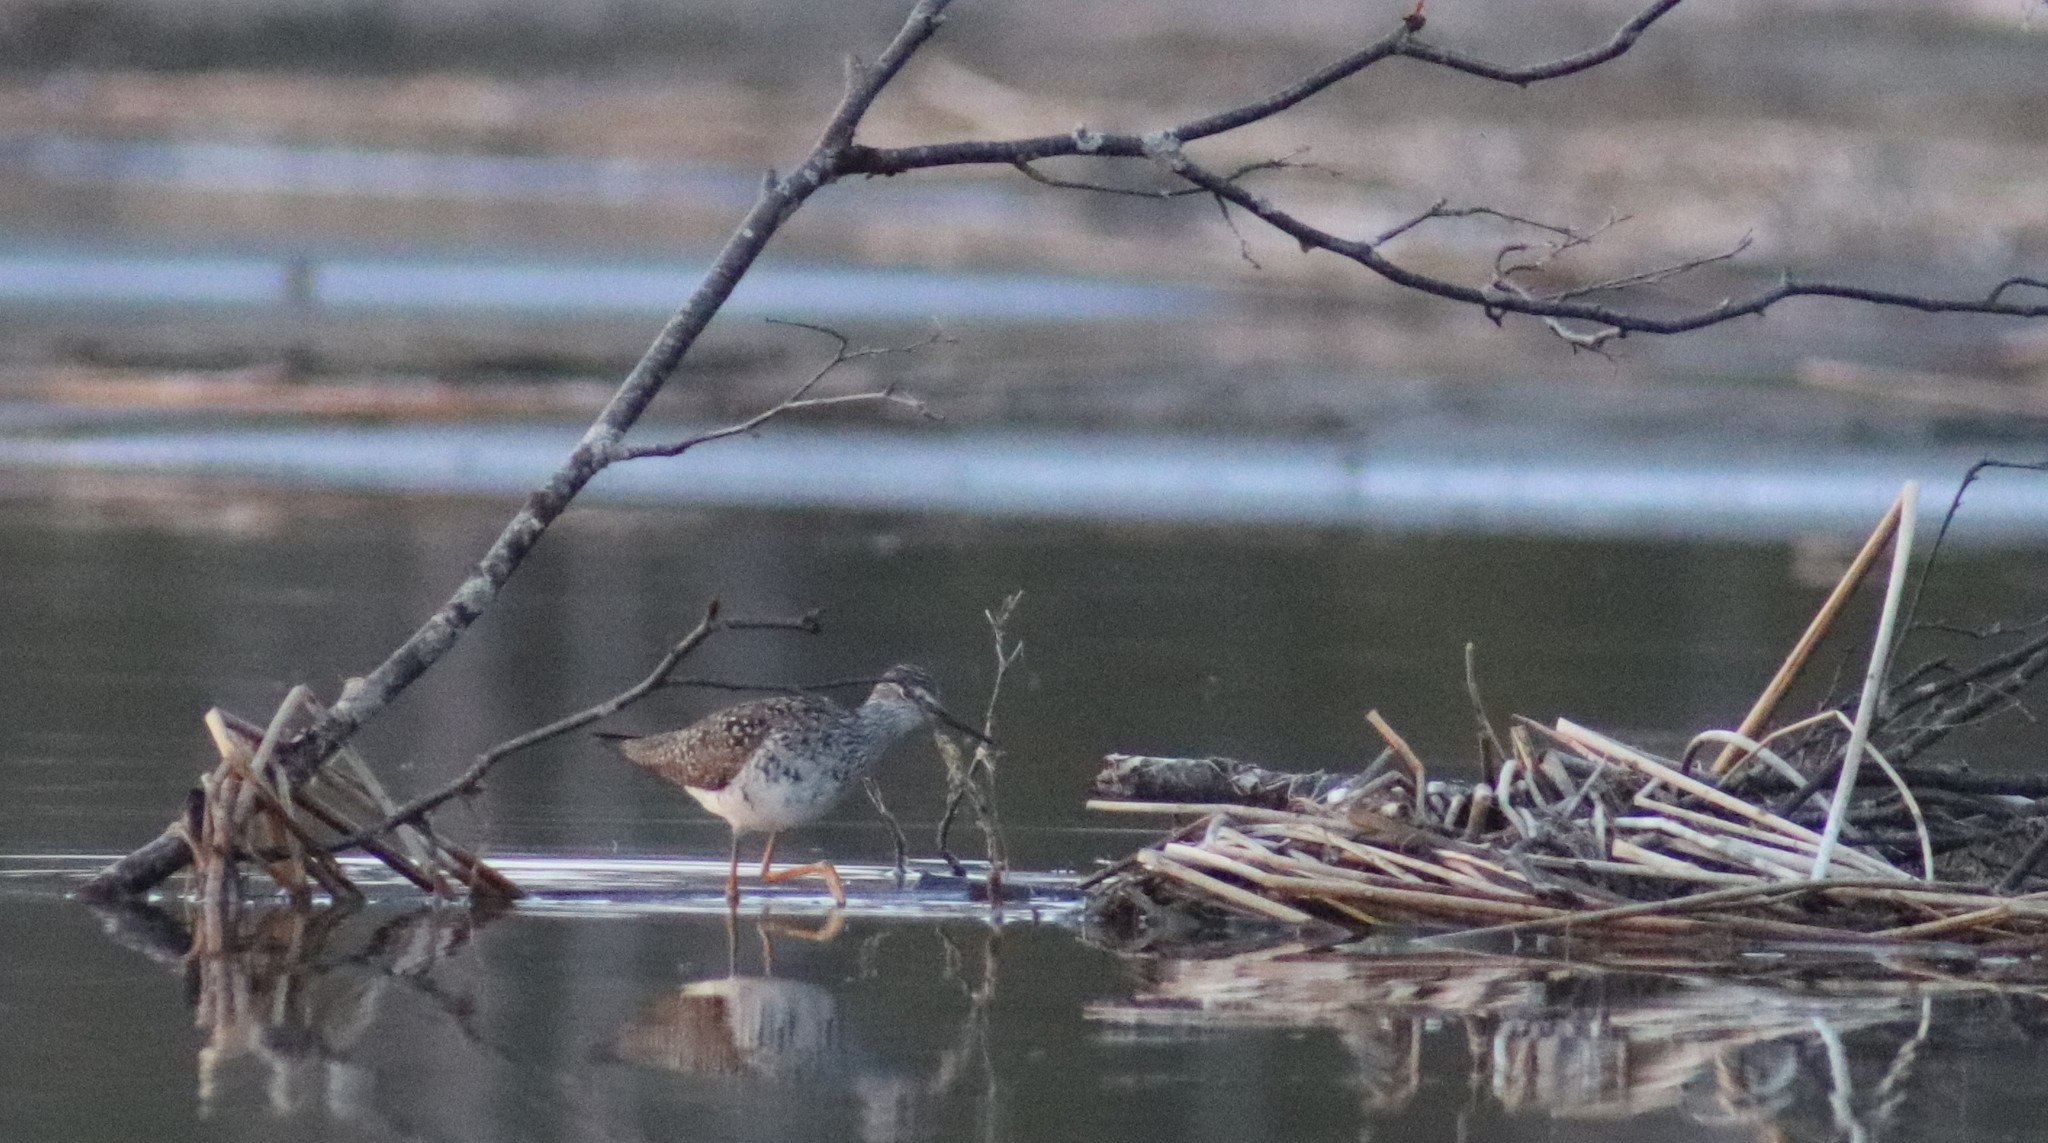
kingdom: Animalia
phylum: Chordata
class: Aves
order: Charadriiformes
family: Scolopacidae
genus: Tringa
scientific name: Tringa flavipes
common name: Lesser yellowlegs
